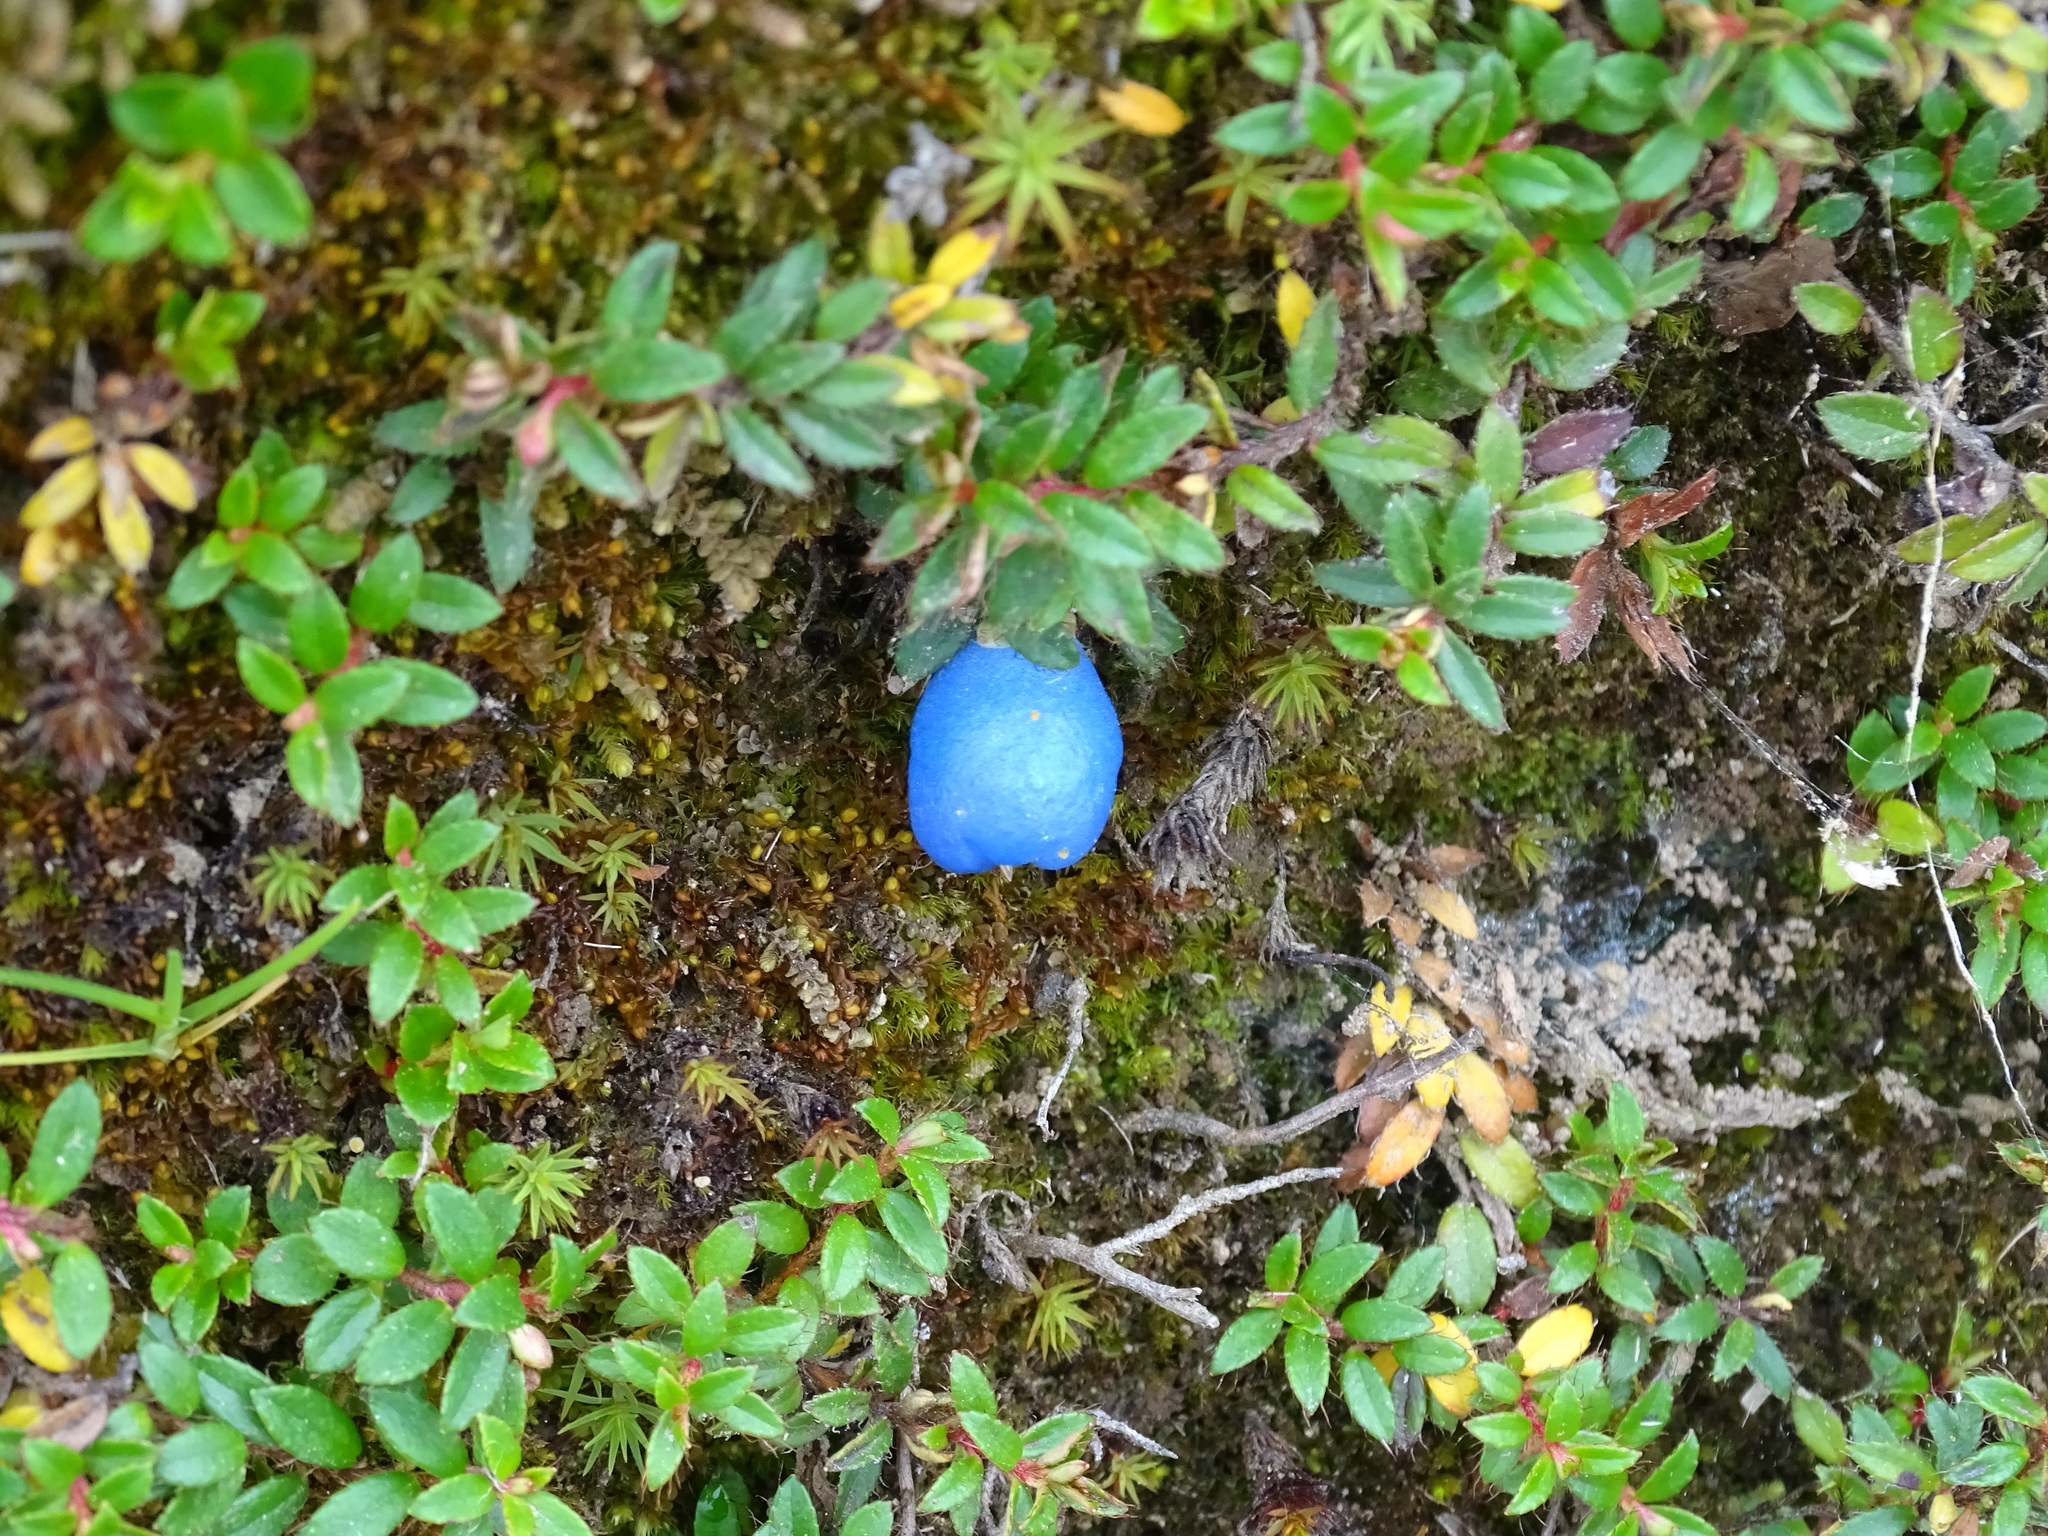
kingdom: Plantae
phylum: Tracheophyta
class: Magnoliopsida
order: Ericales
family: Ericaceae
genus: Gaultheria
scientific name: Gaultheria trichophylla
